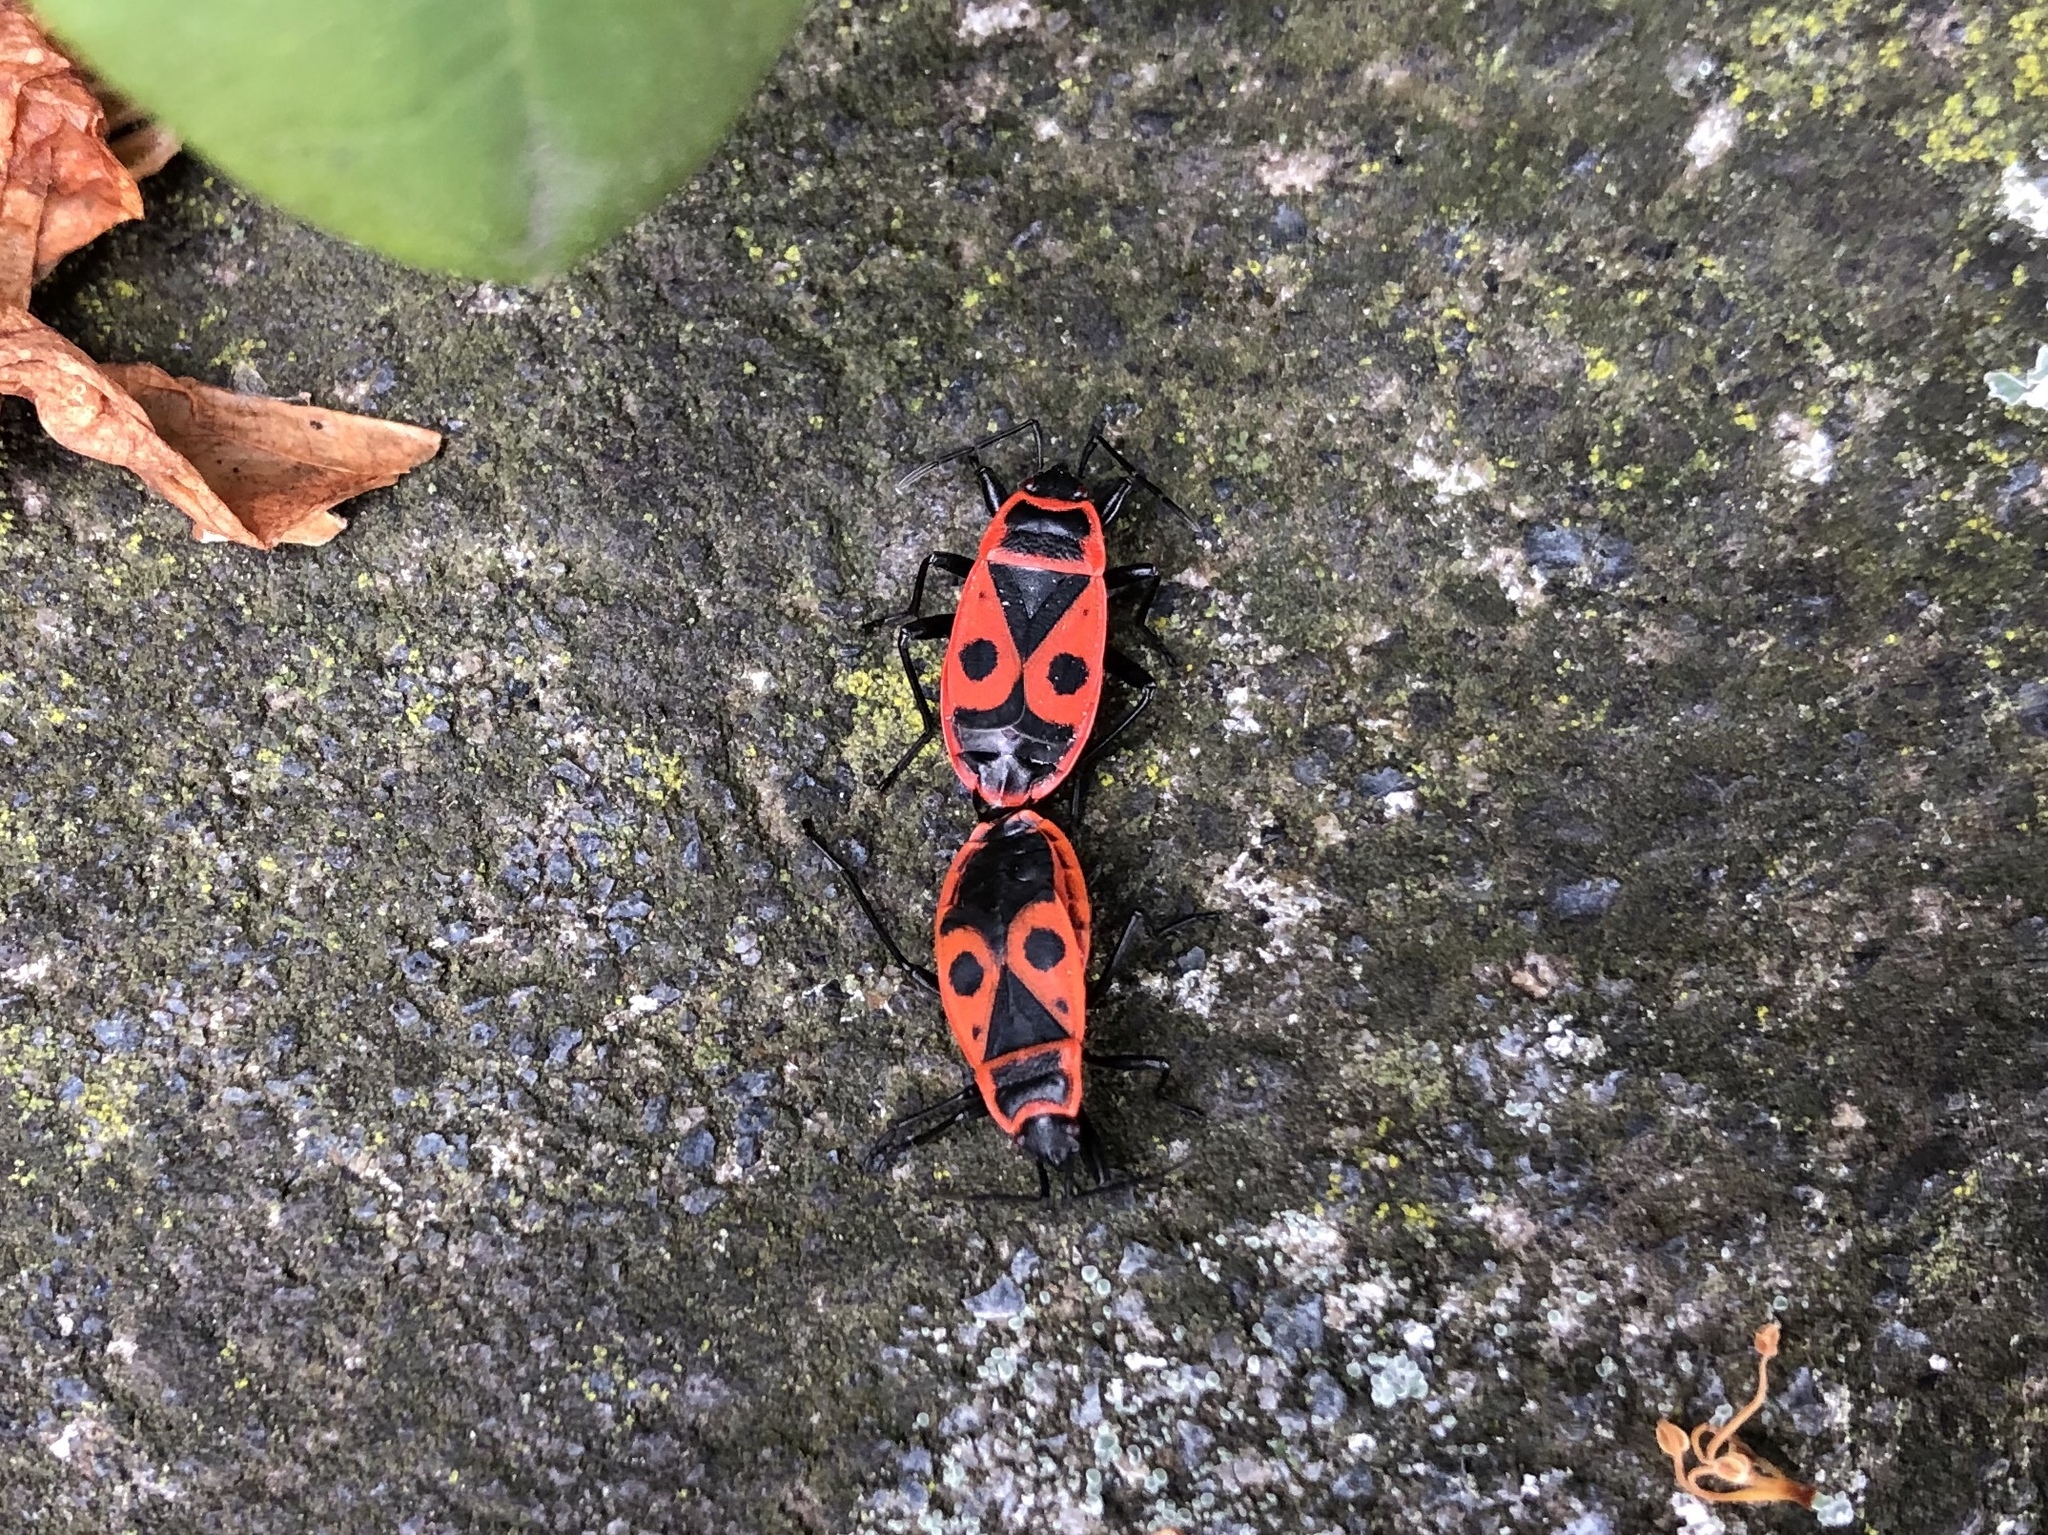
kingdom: Animalia
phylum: Arthropoda
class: Insecta
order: Hemiptera
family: Pyrrhocoridae
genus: Pyrrhocoris
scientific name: Pyrrhocoris apterus
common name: Firebug
